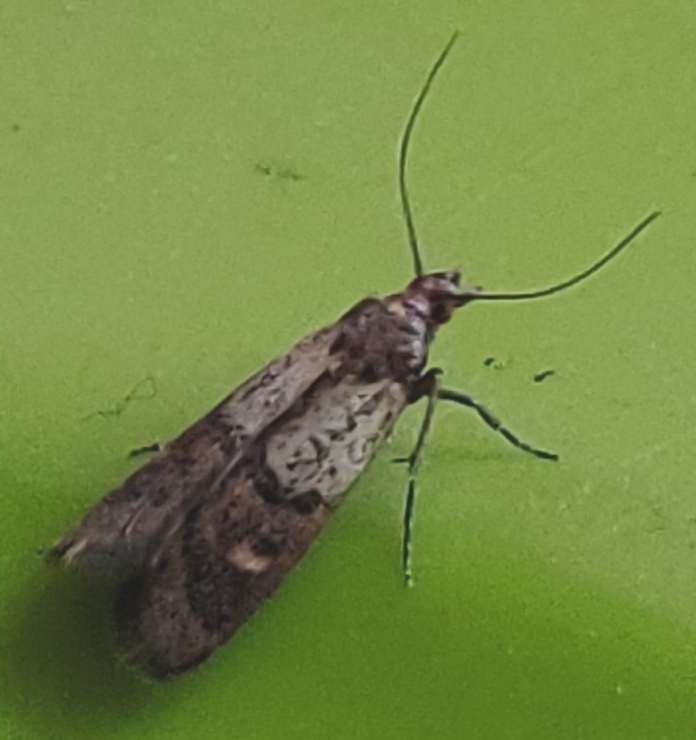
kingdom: Animalia
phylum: Arthropoda
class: Insecta
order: Lepidoptera
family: Pyralidae
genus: Plodia
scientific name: Plodia interpunctella
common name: Indian meal moth
